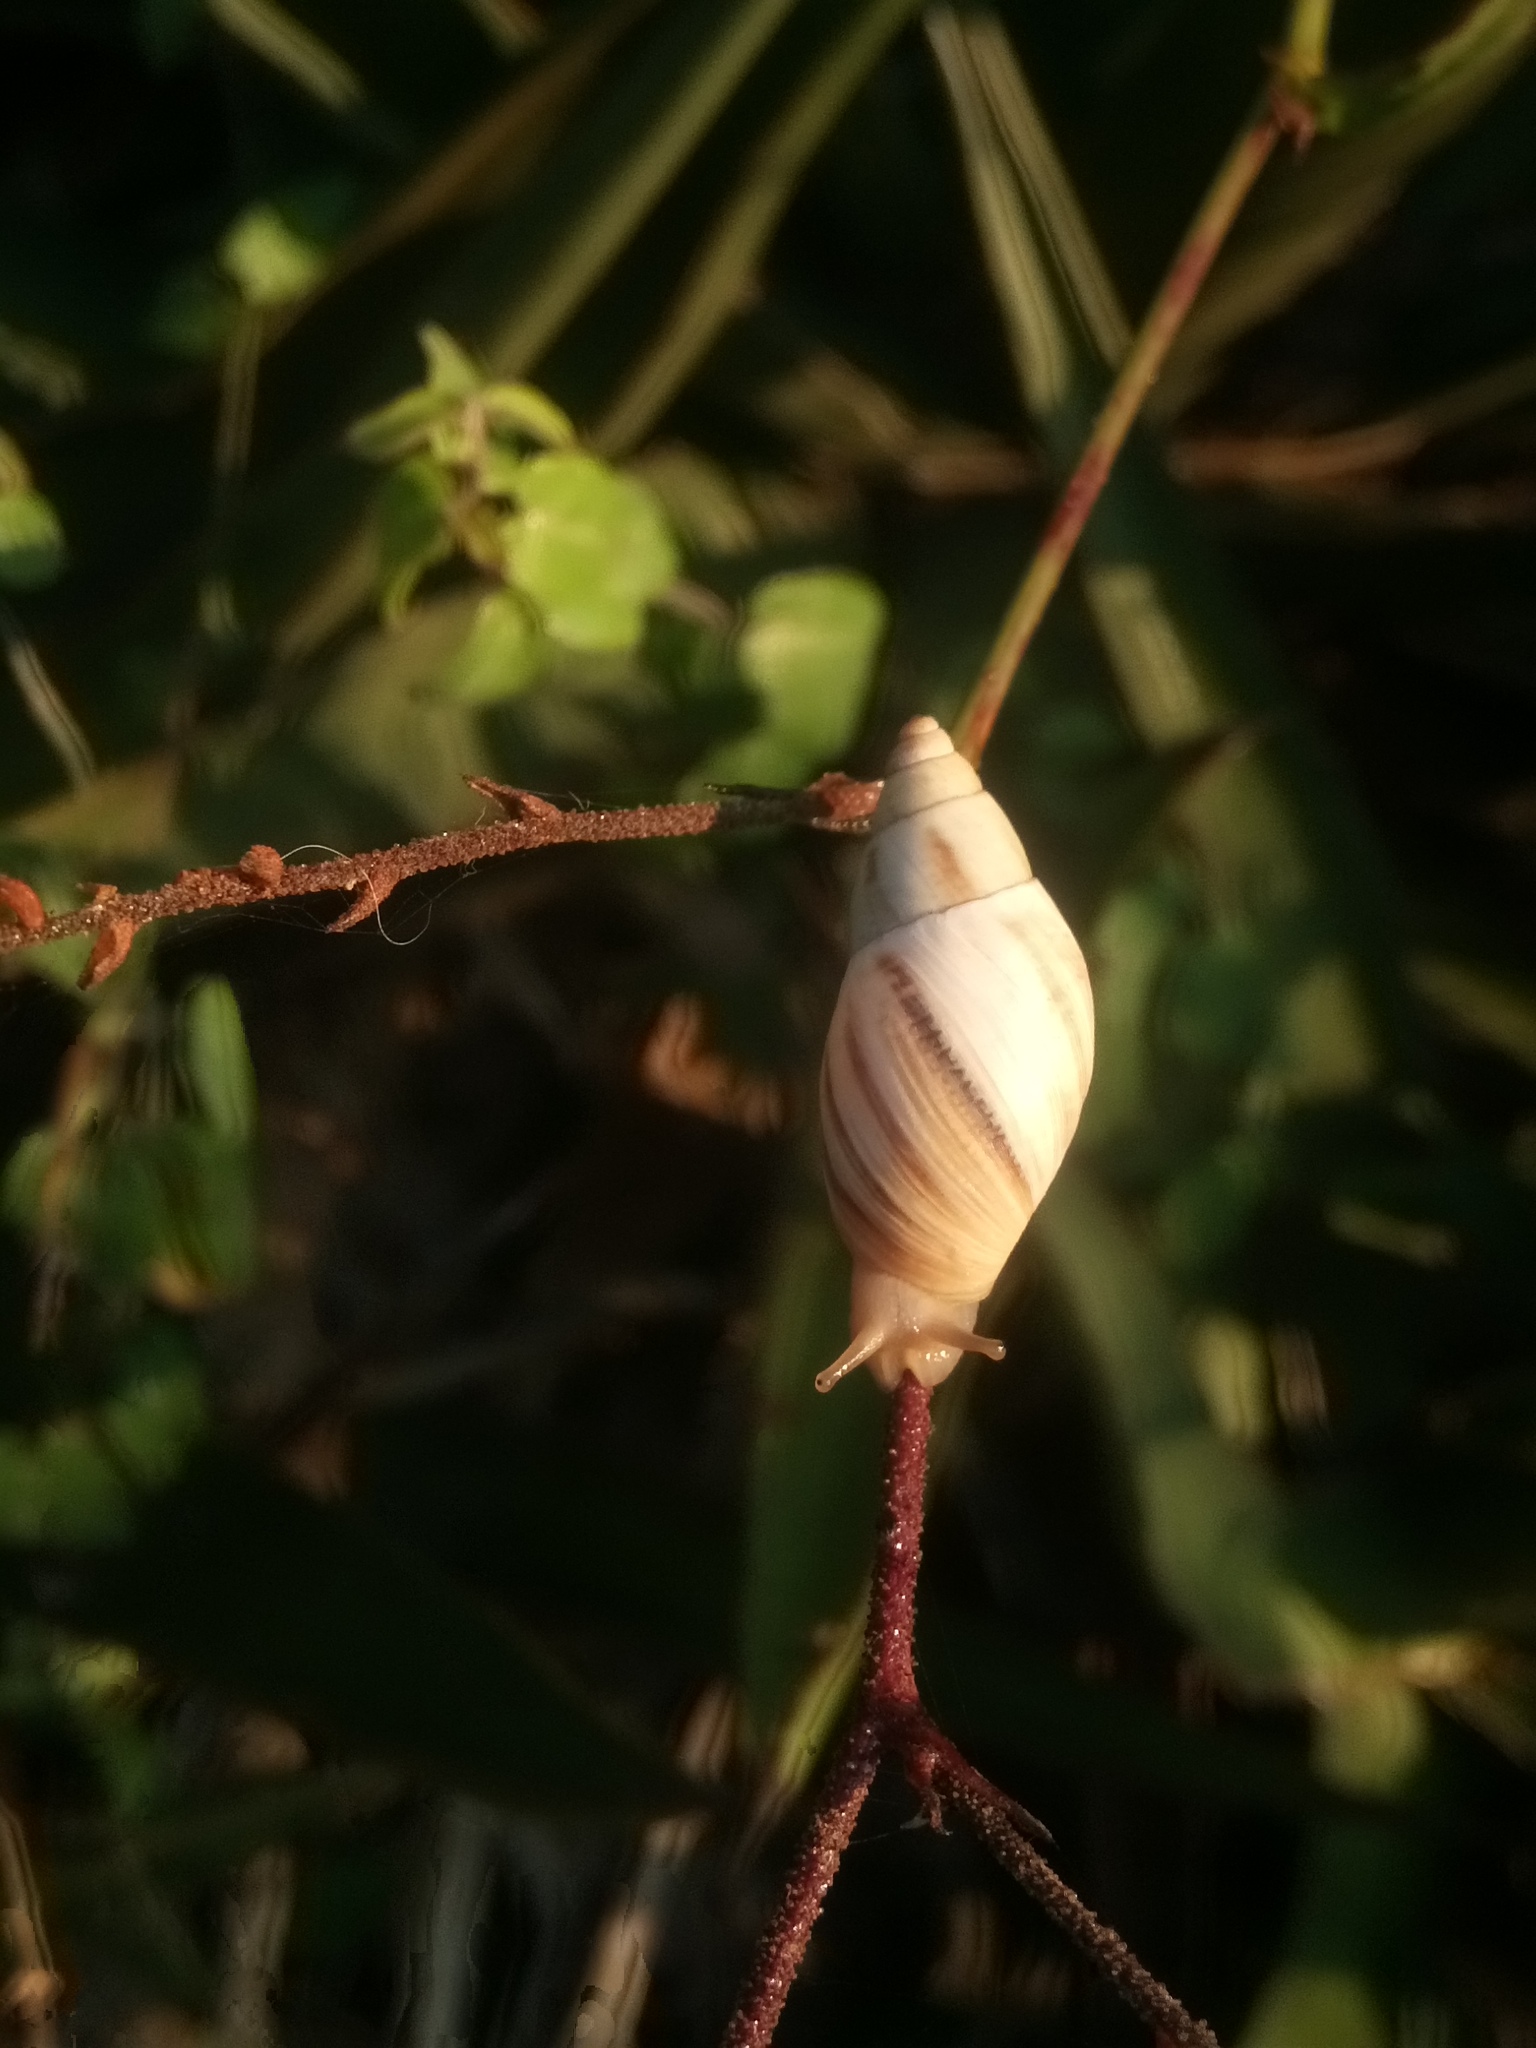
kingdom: Animalia
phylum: Mollusca
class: Gastropoda
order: Stylommatophora
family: Bulimulidae
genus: Drymaeus
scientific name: Drymaeus
